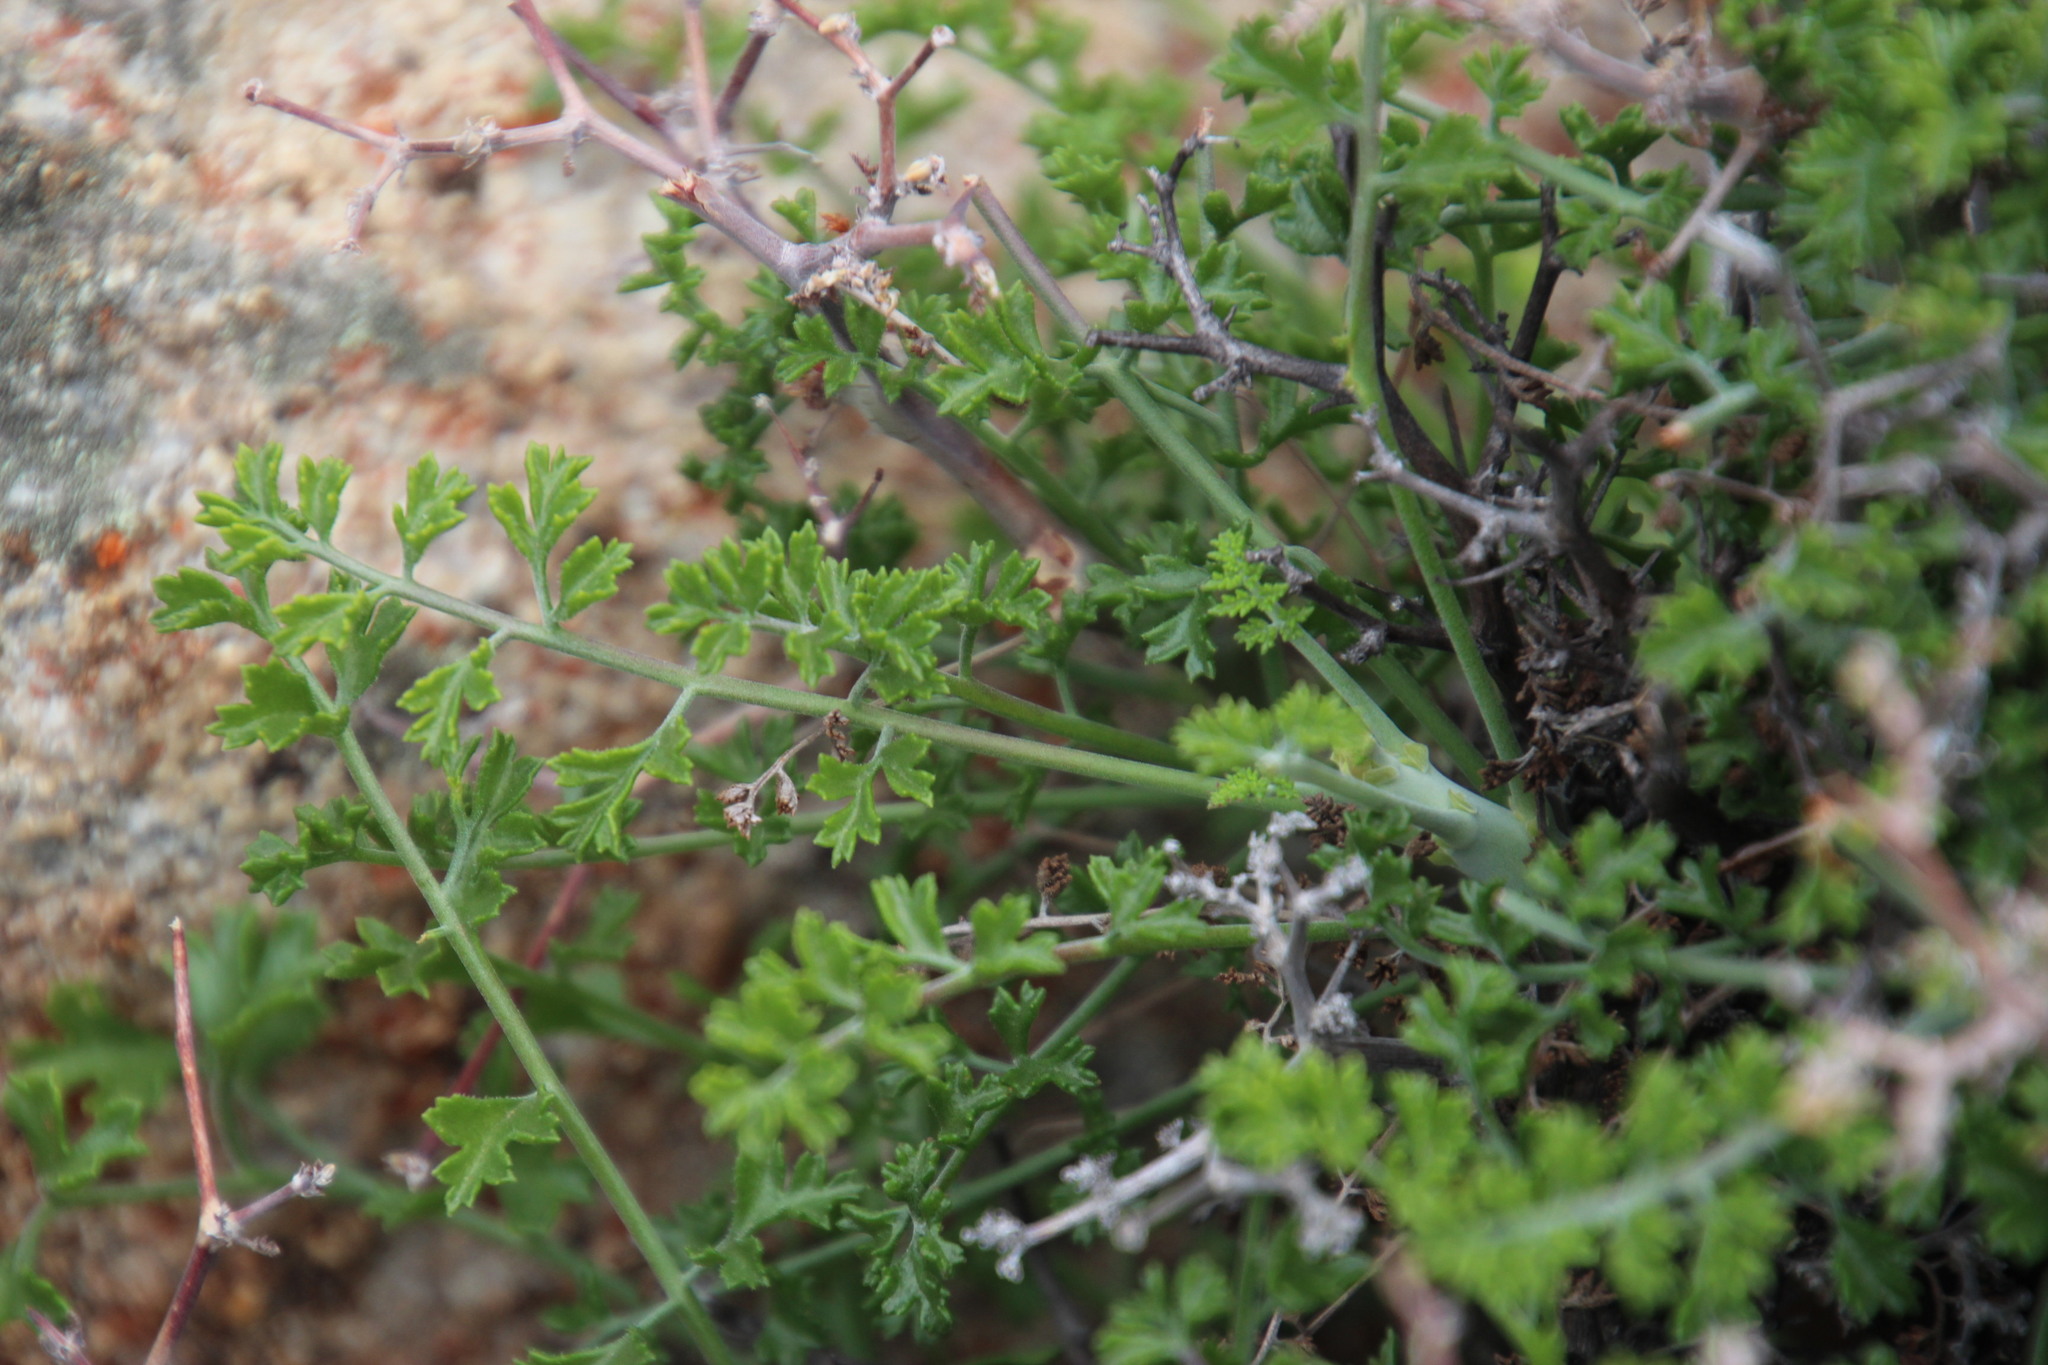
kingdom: Plantae
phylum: Tracheophyta
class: Magnoliopsida
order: Geraniales
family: Geraniaceae
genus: Pelargonium
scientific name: Pelargonium dasyphyllum
